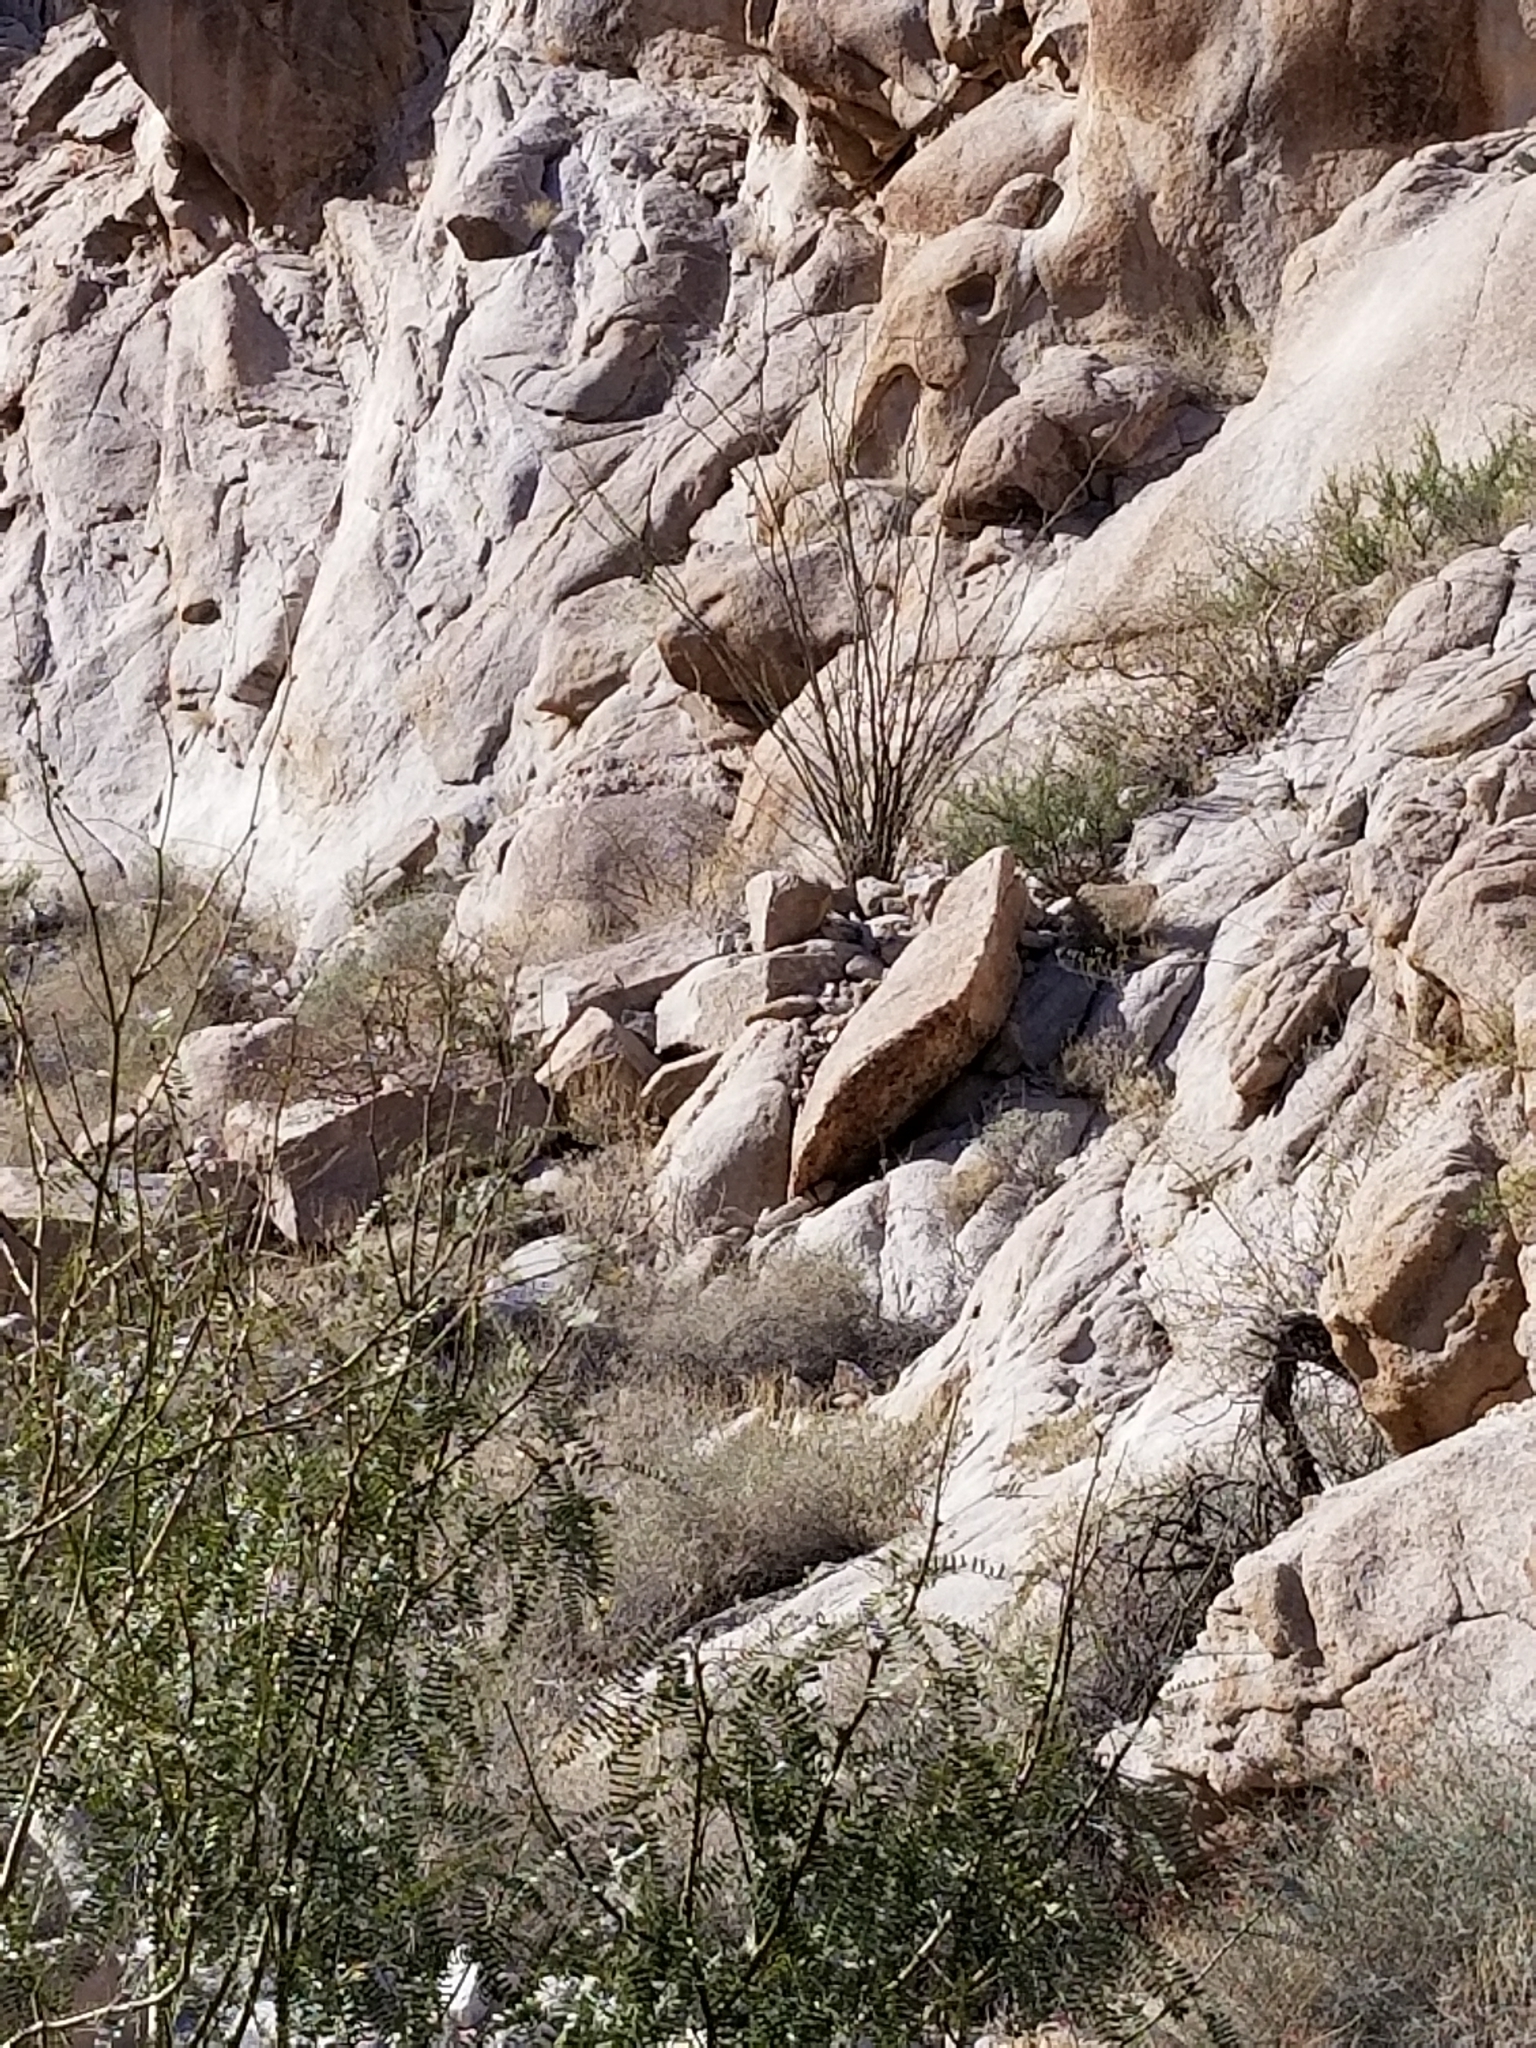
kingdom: Plantae
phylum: Tracheophyta
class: Magnoliopsida
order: Ericales
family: Fouquieriaceae
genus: Fouquieria
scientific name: Fouquieria splendens
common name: Vine-cactus
